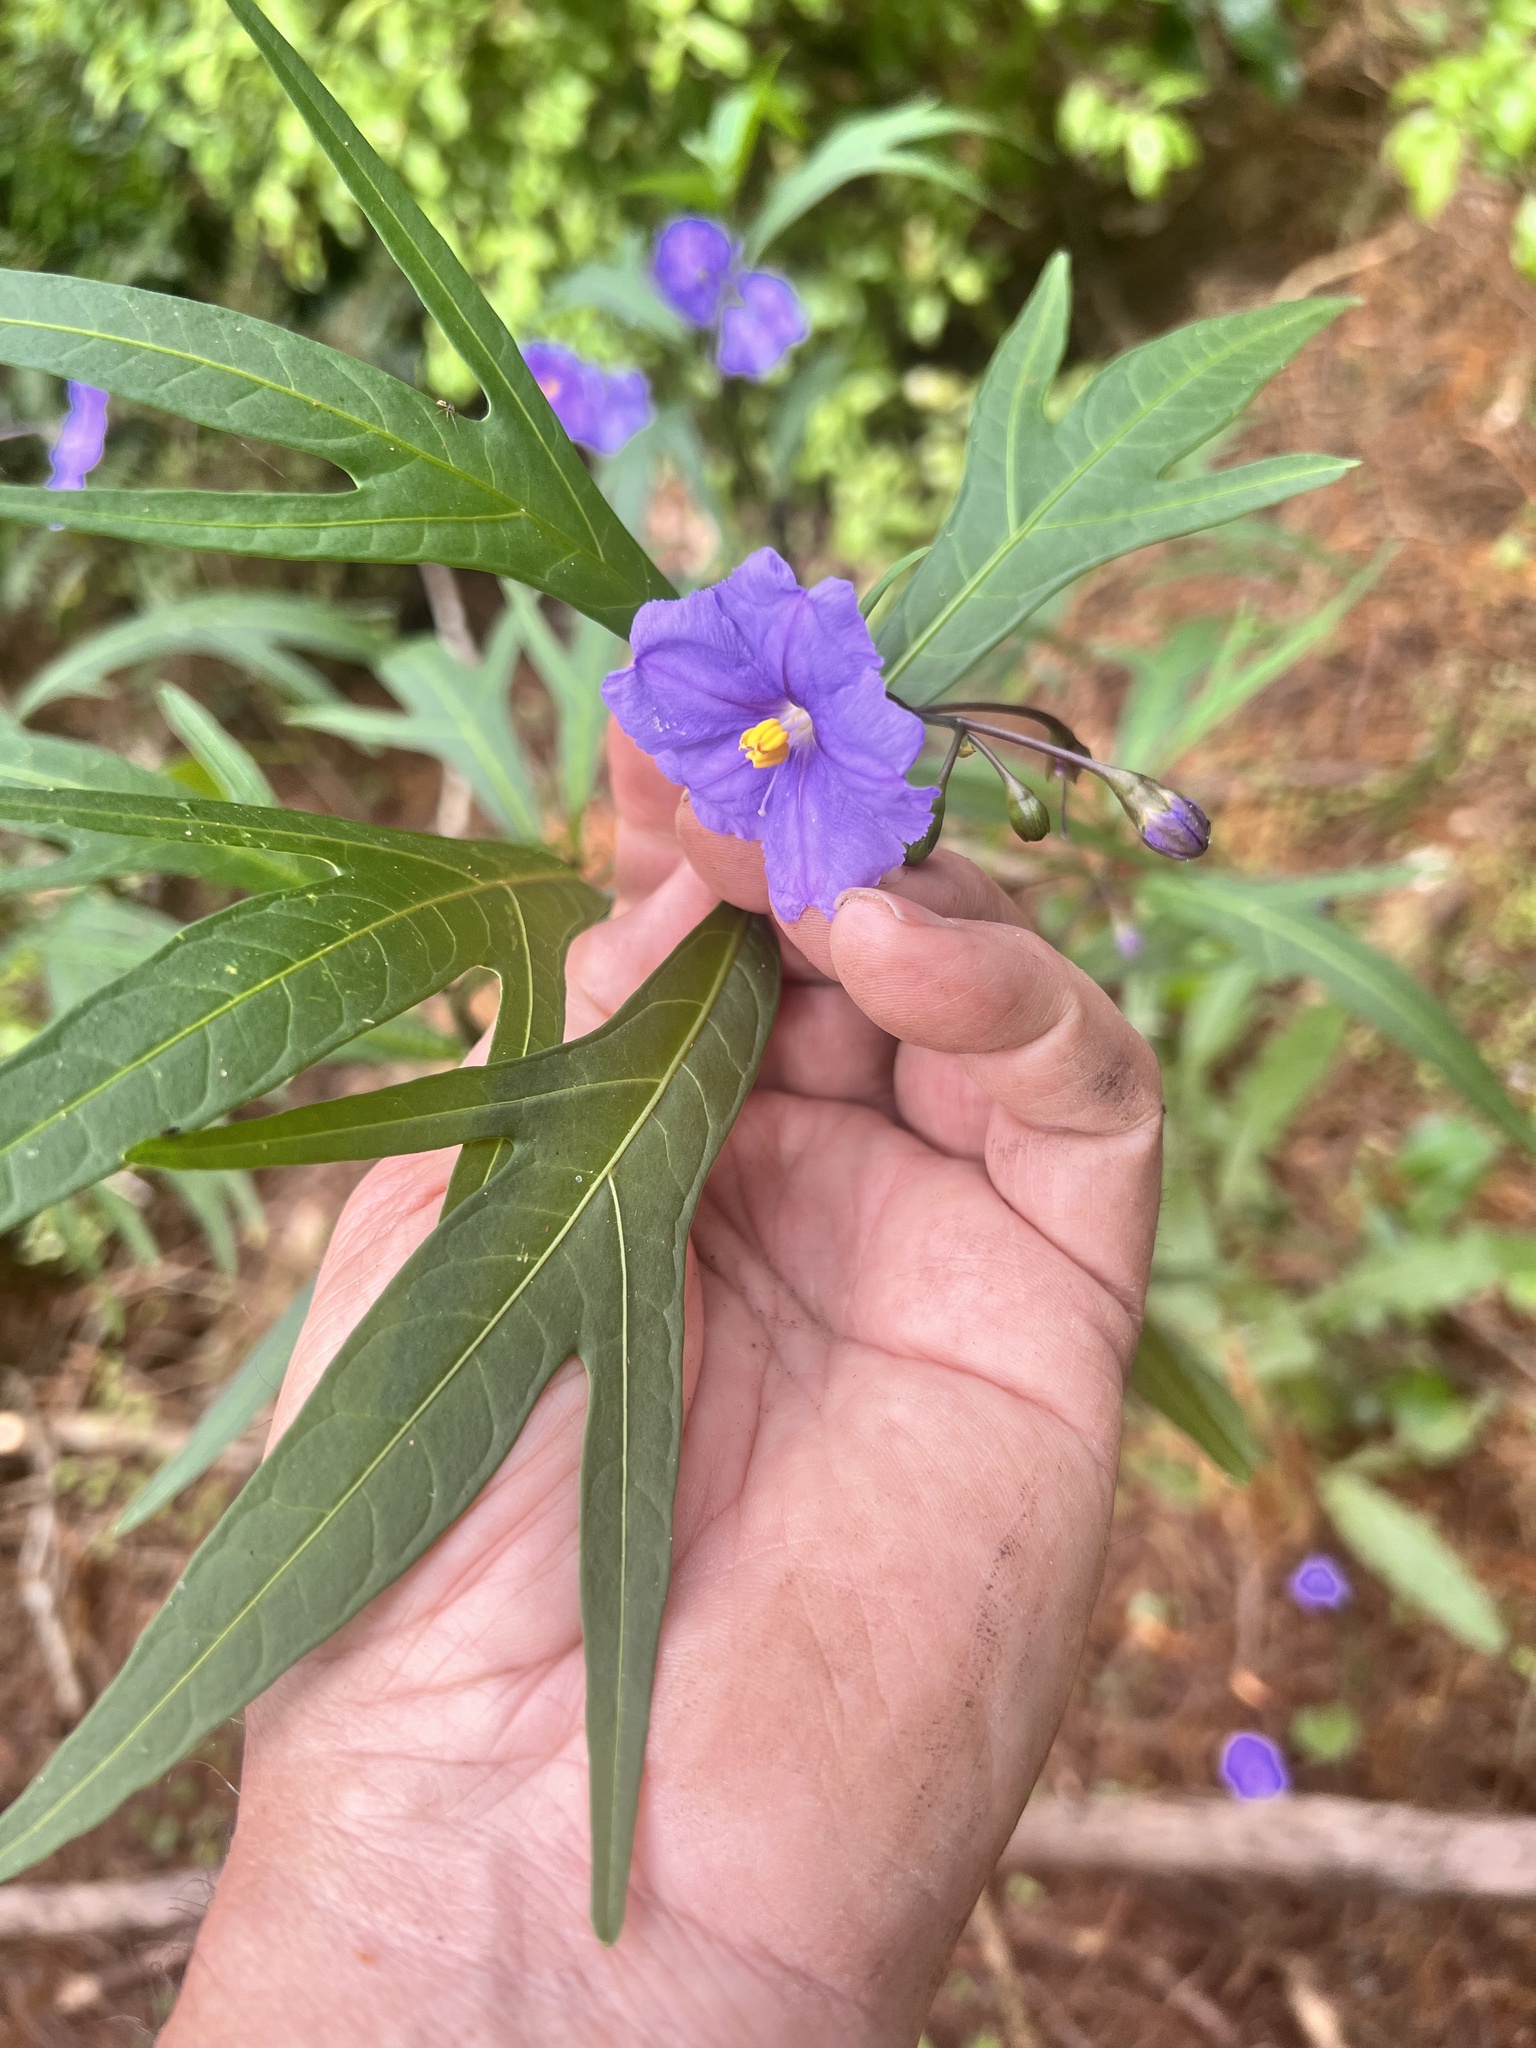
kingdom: Plantae
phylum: Tracheophyta
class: Magnoliopsida
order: Solanales
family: Solanaceae
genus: Solanum
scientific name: Solanum laciniatum
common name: Kangaroo-apple
